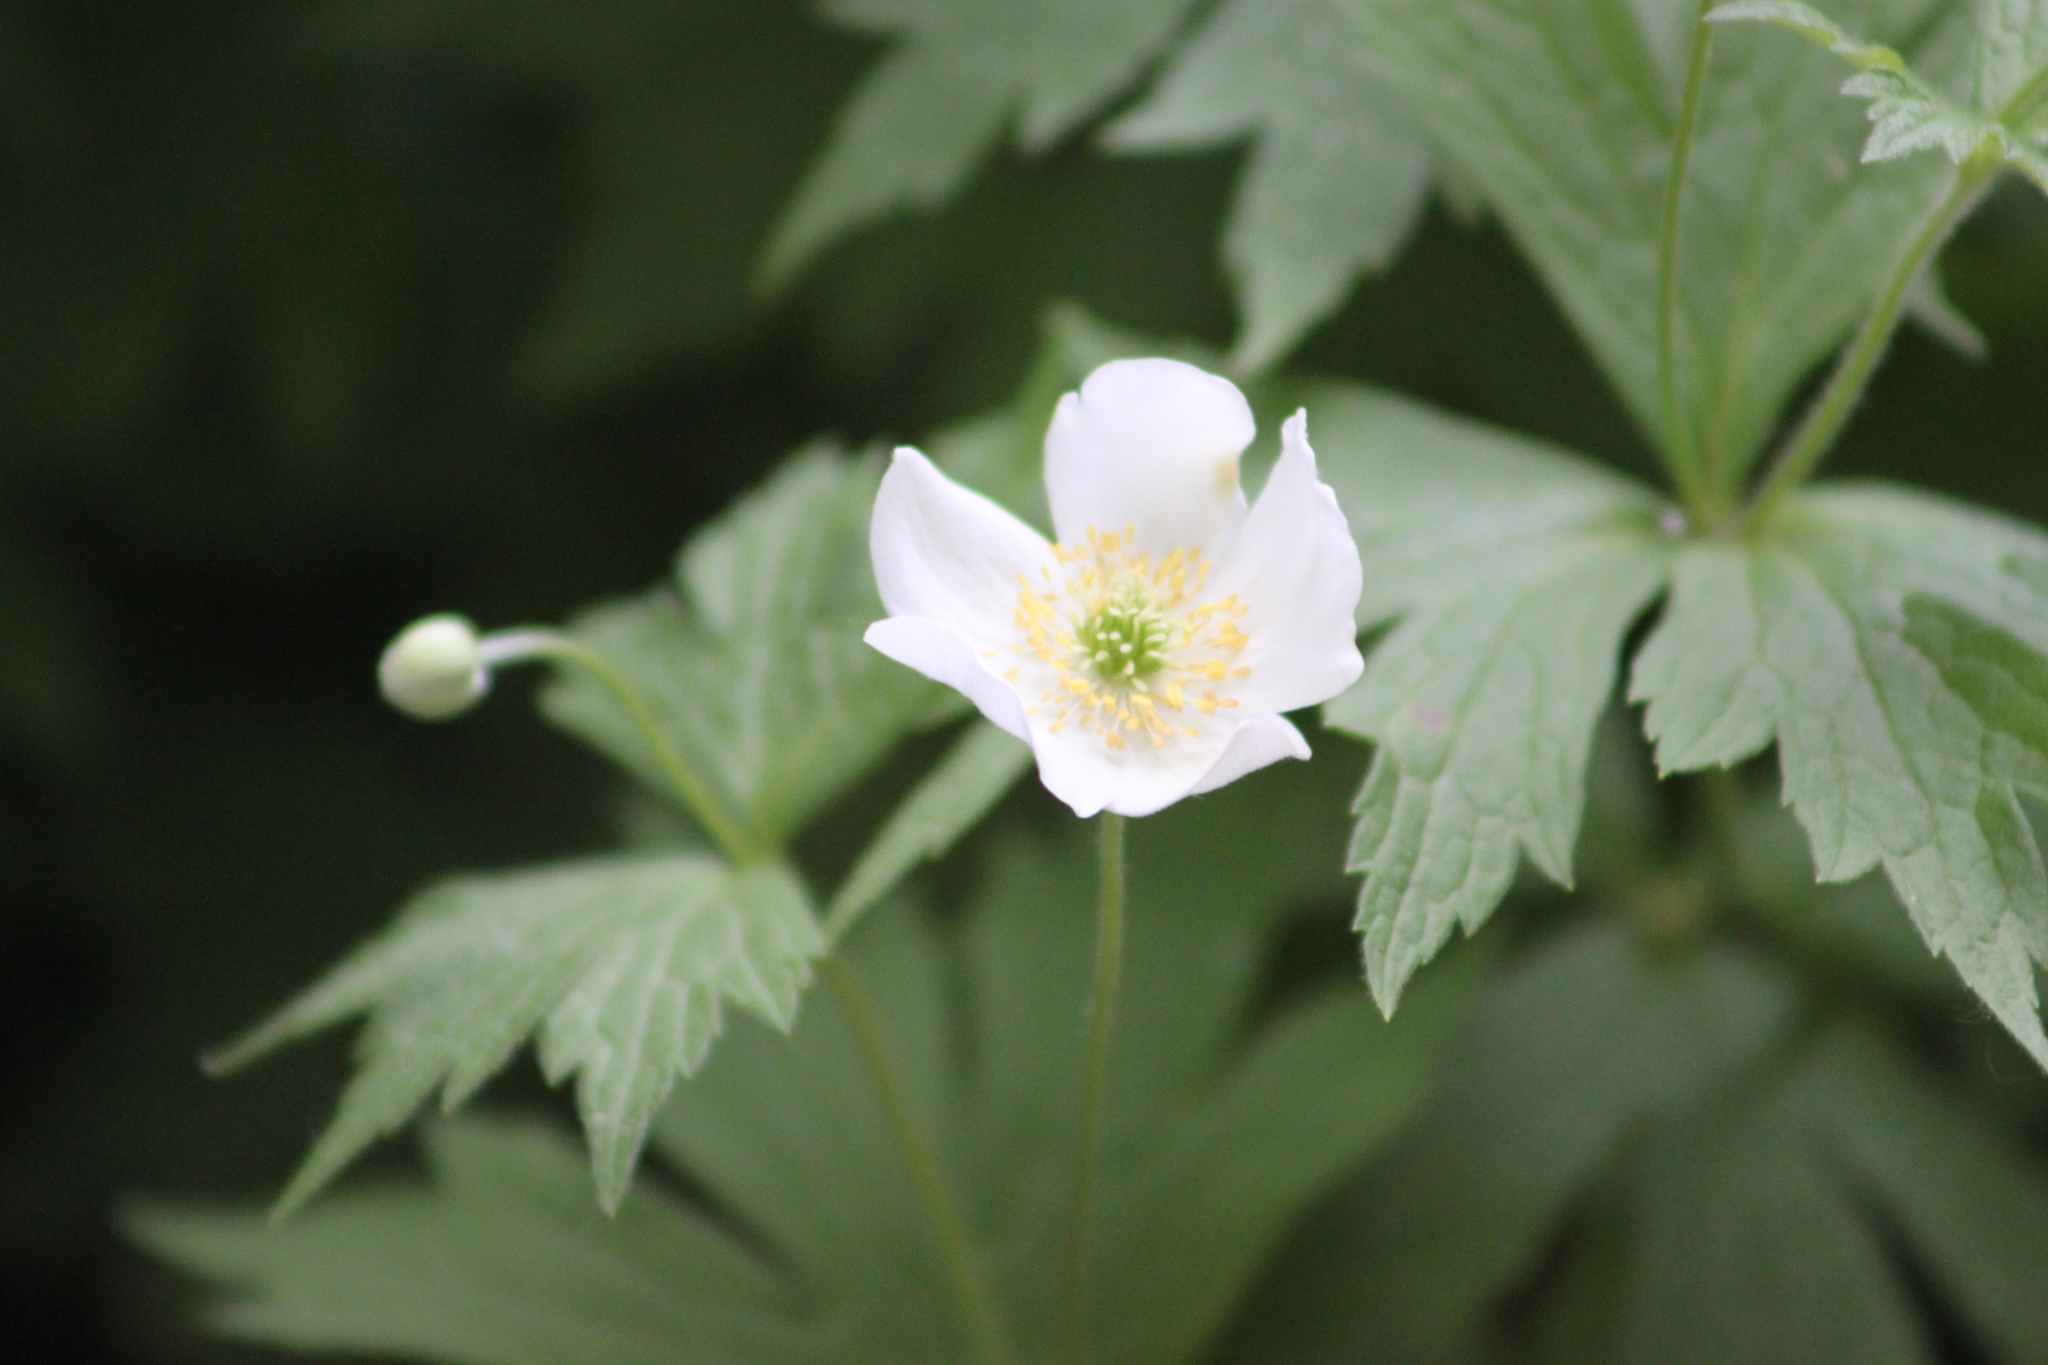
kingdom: Plantae
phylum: Tracheophyta
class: Magnoliopsida
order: Ranunculales
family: Ranunculaceae
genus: Anemonastrum
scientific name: Anemonastrum canadense
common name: Canada anemone
